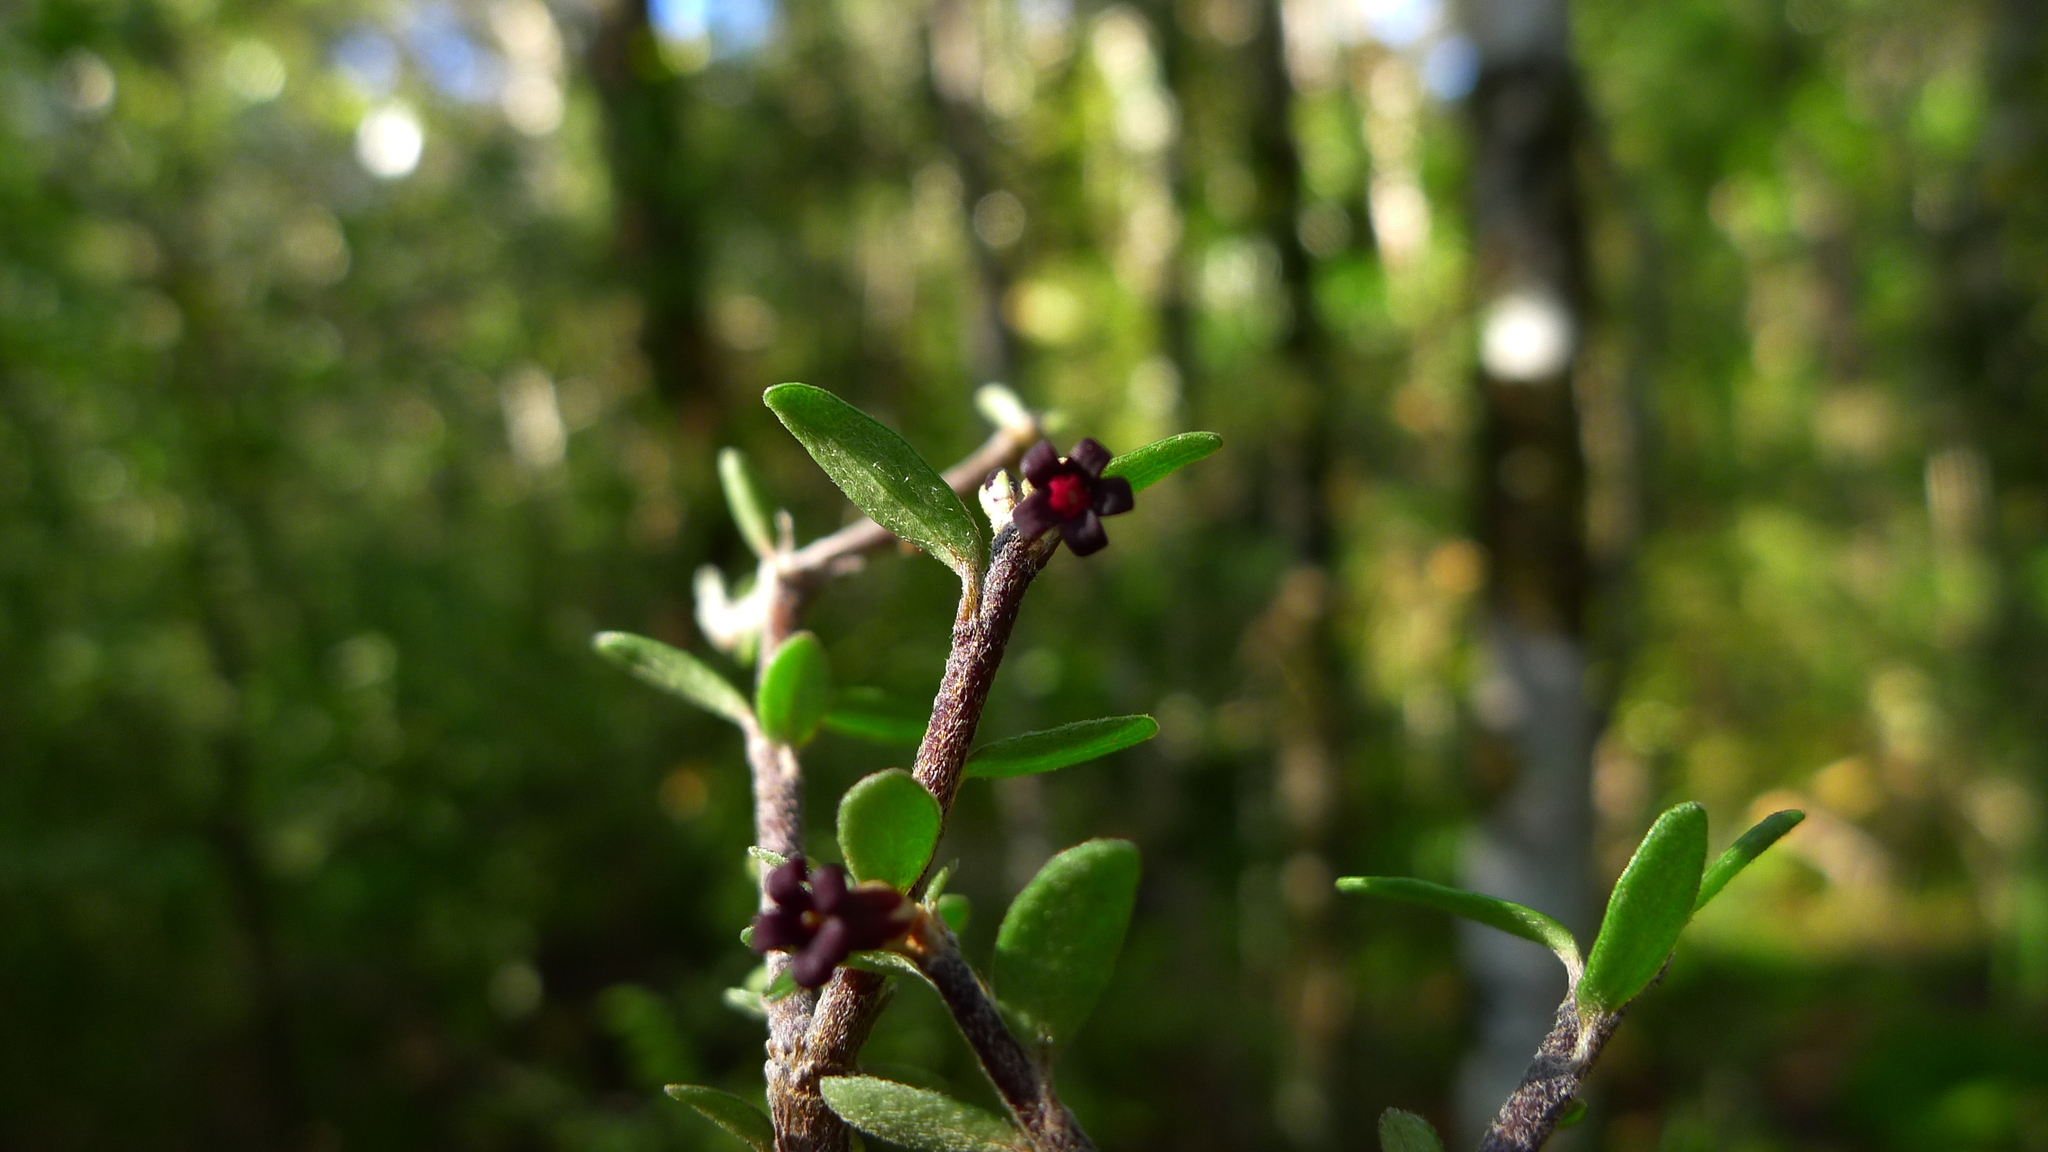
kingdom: Plantae
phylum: Tracheophyta
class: Magnoliopsida
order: Apiales
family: Pittosporaceae
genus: Pittosporum
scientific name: Pittosporum rigidum
